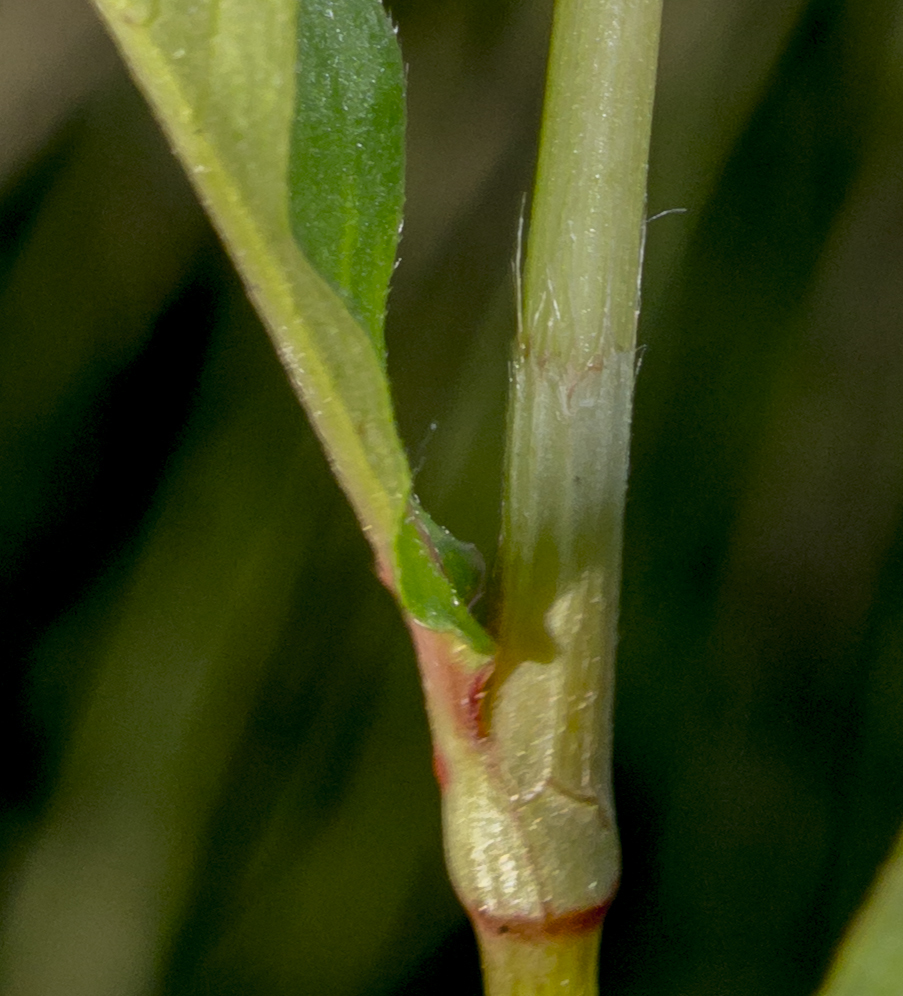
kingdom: Plantae
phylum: Tracheophyta
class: Magnoliopsida
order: Caryophyllales
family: Polygonaceae
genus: Persicaria
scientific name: Persicaria longiseta
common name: Bristly lady's-thumb
